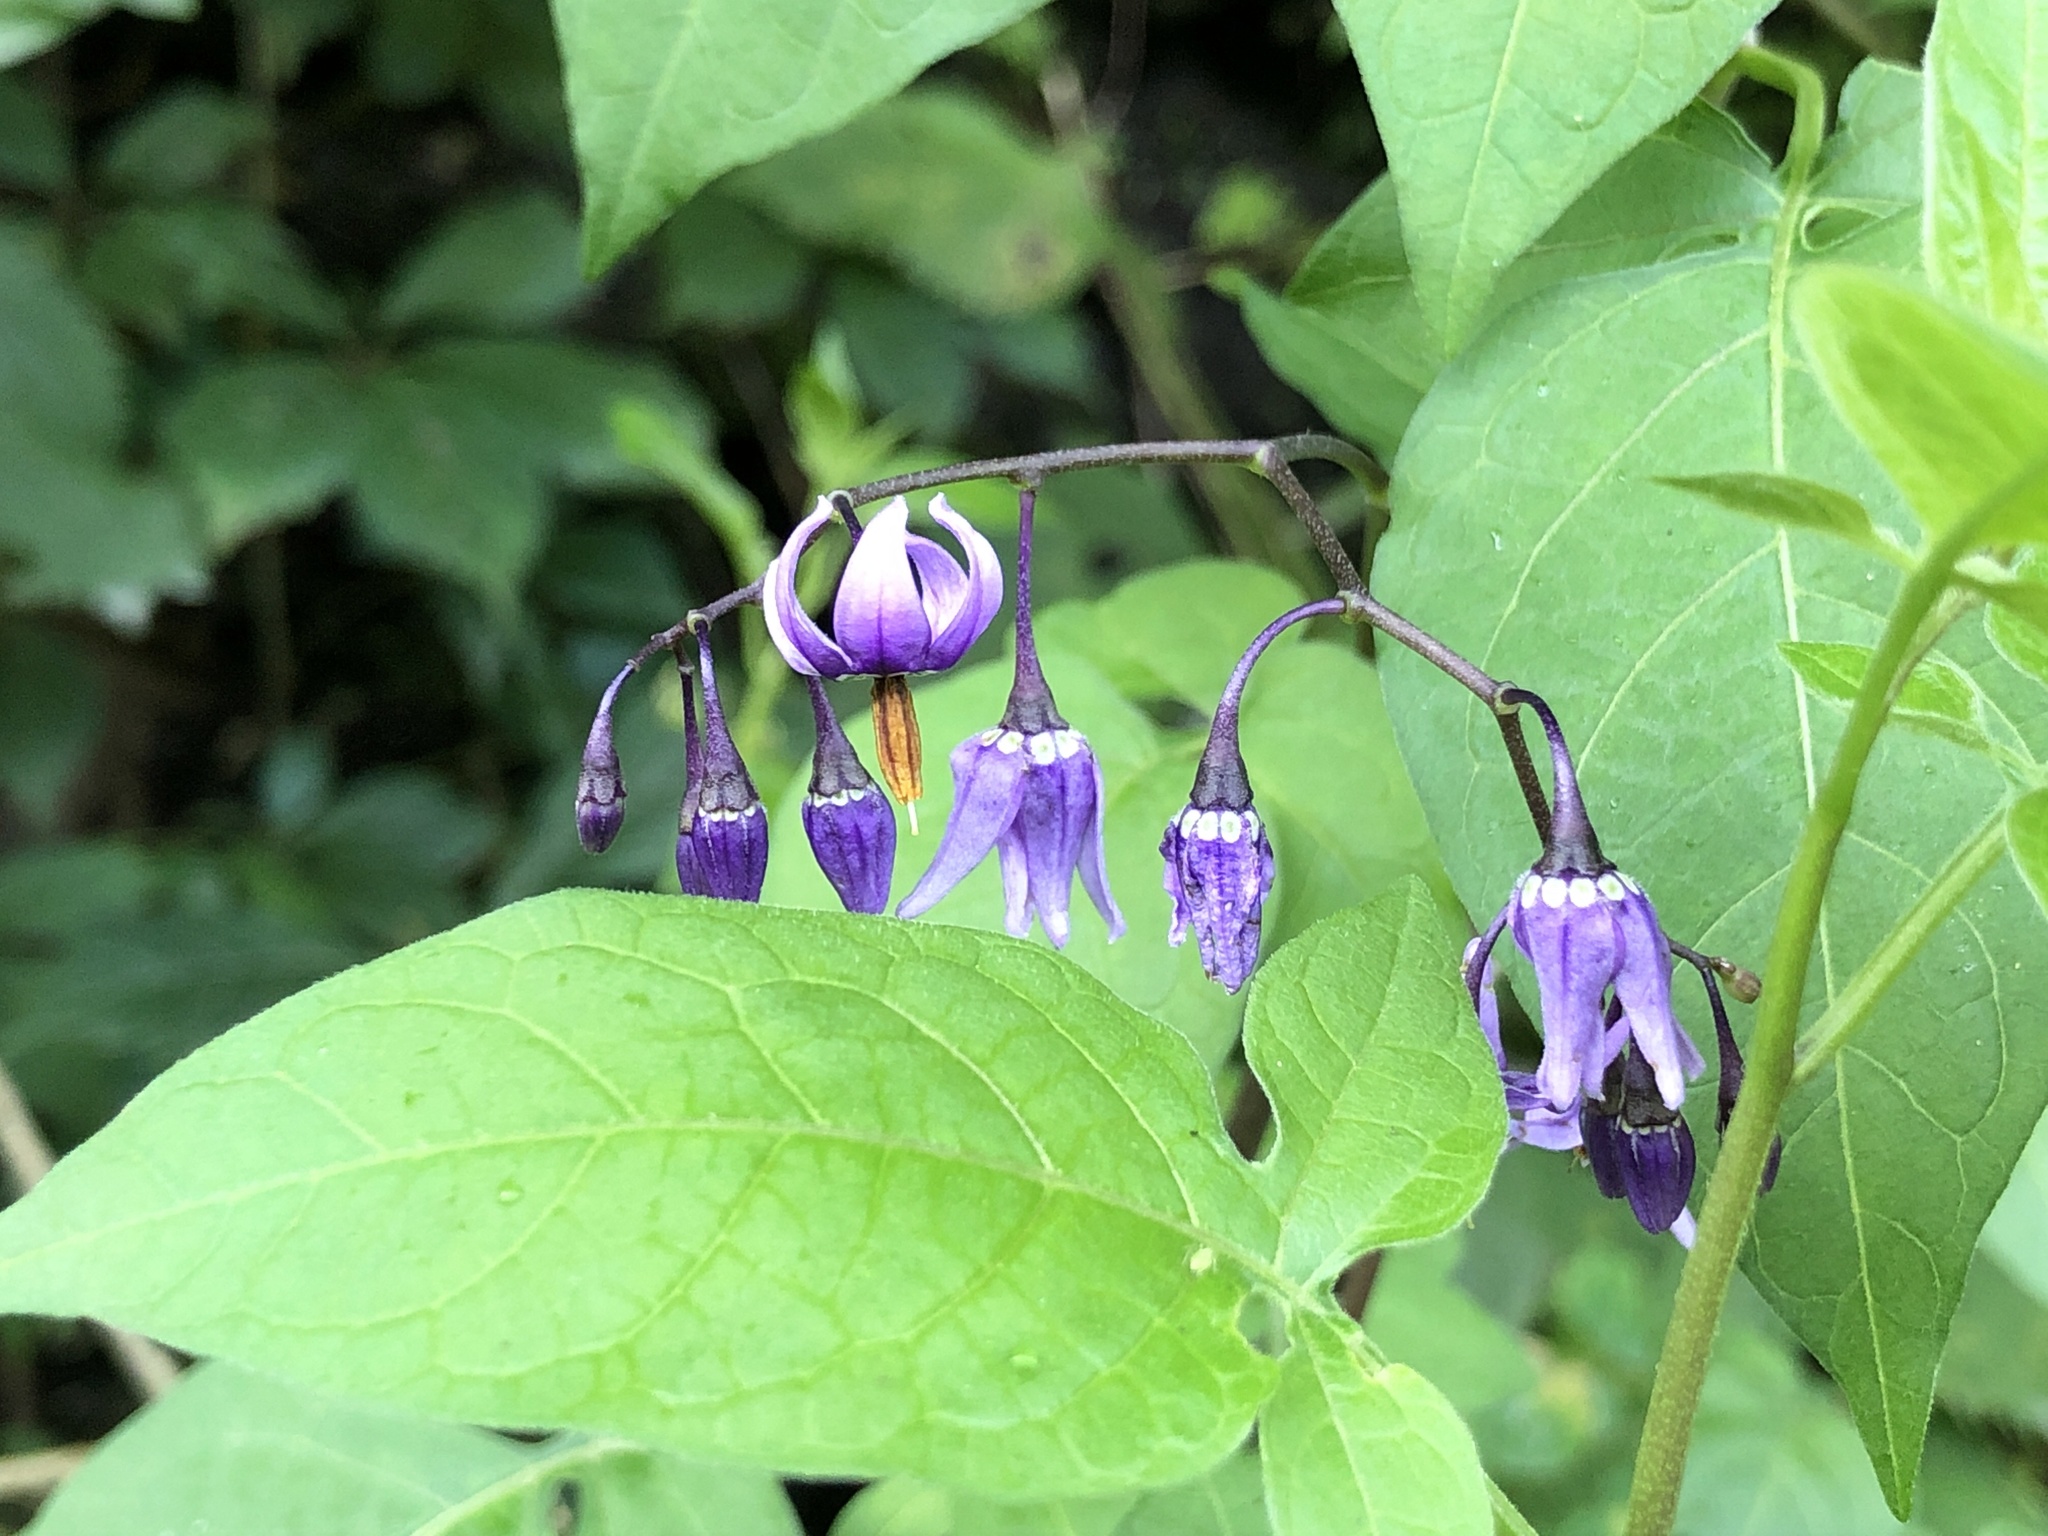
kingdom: Plantae
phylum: Tracheophyta
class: Magnoliopsida
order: Solanales
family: Solanaceae
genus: Solanum
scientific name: Solanum dulcamara
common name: Climbing nightshade
